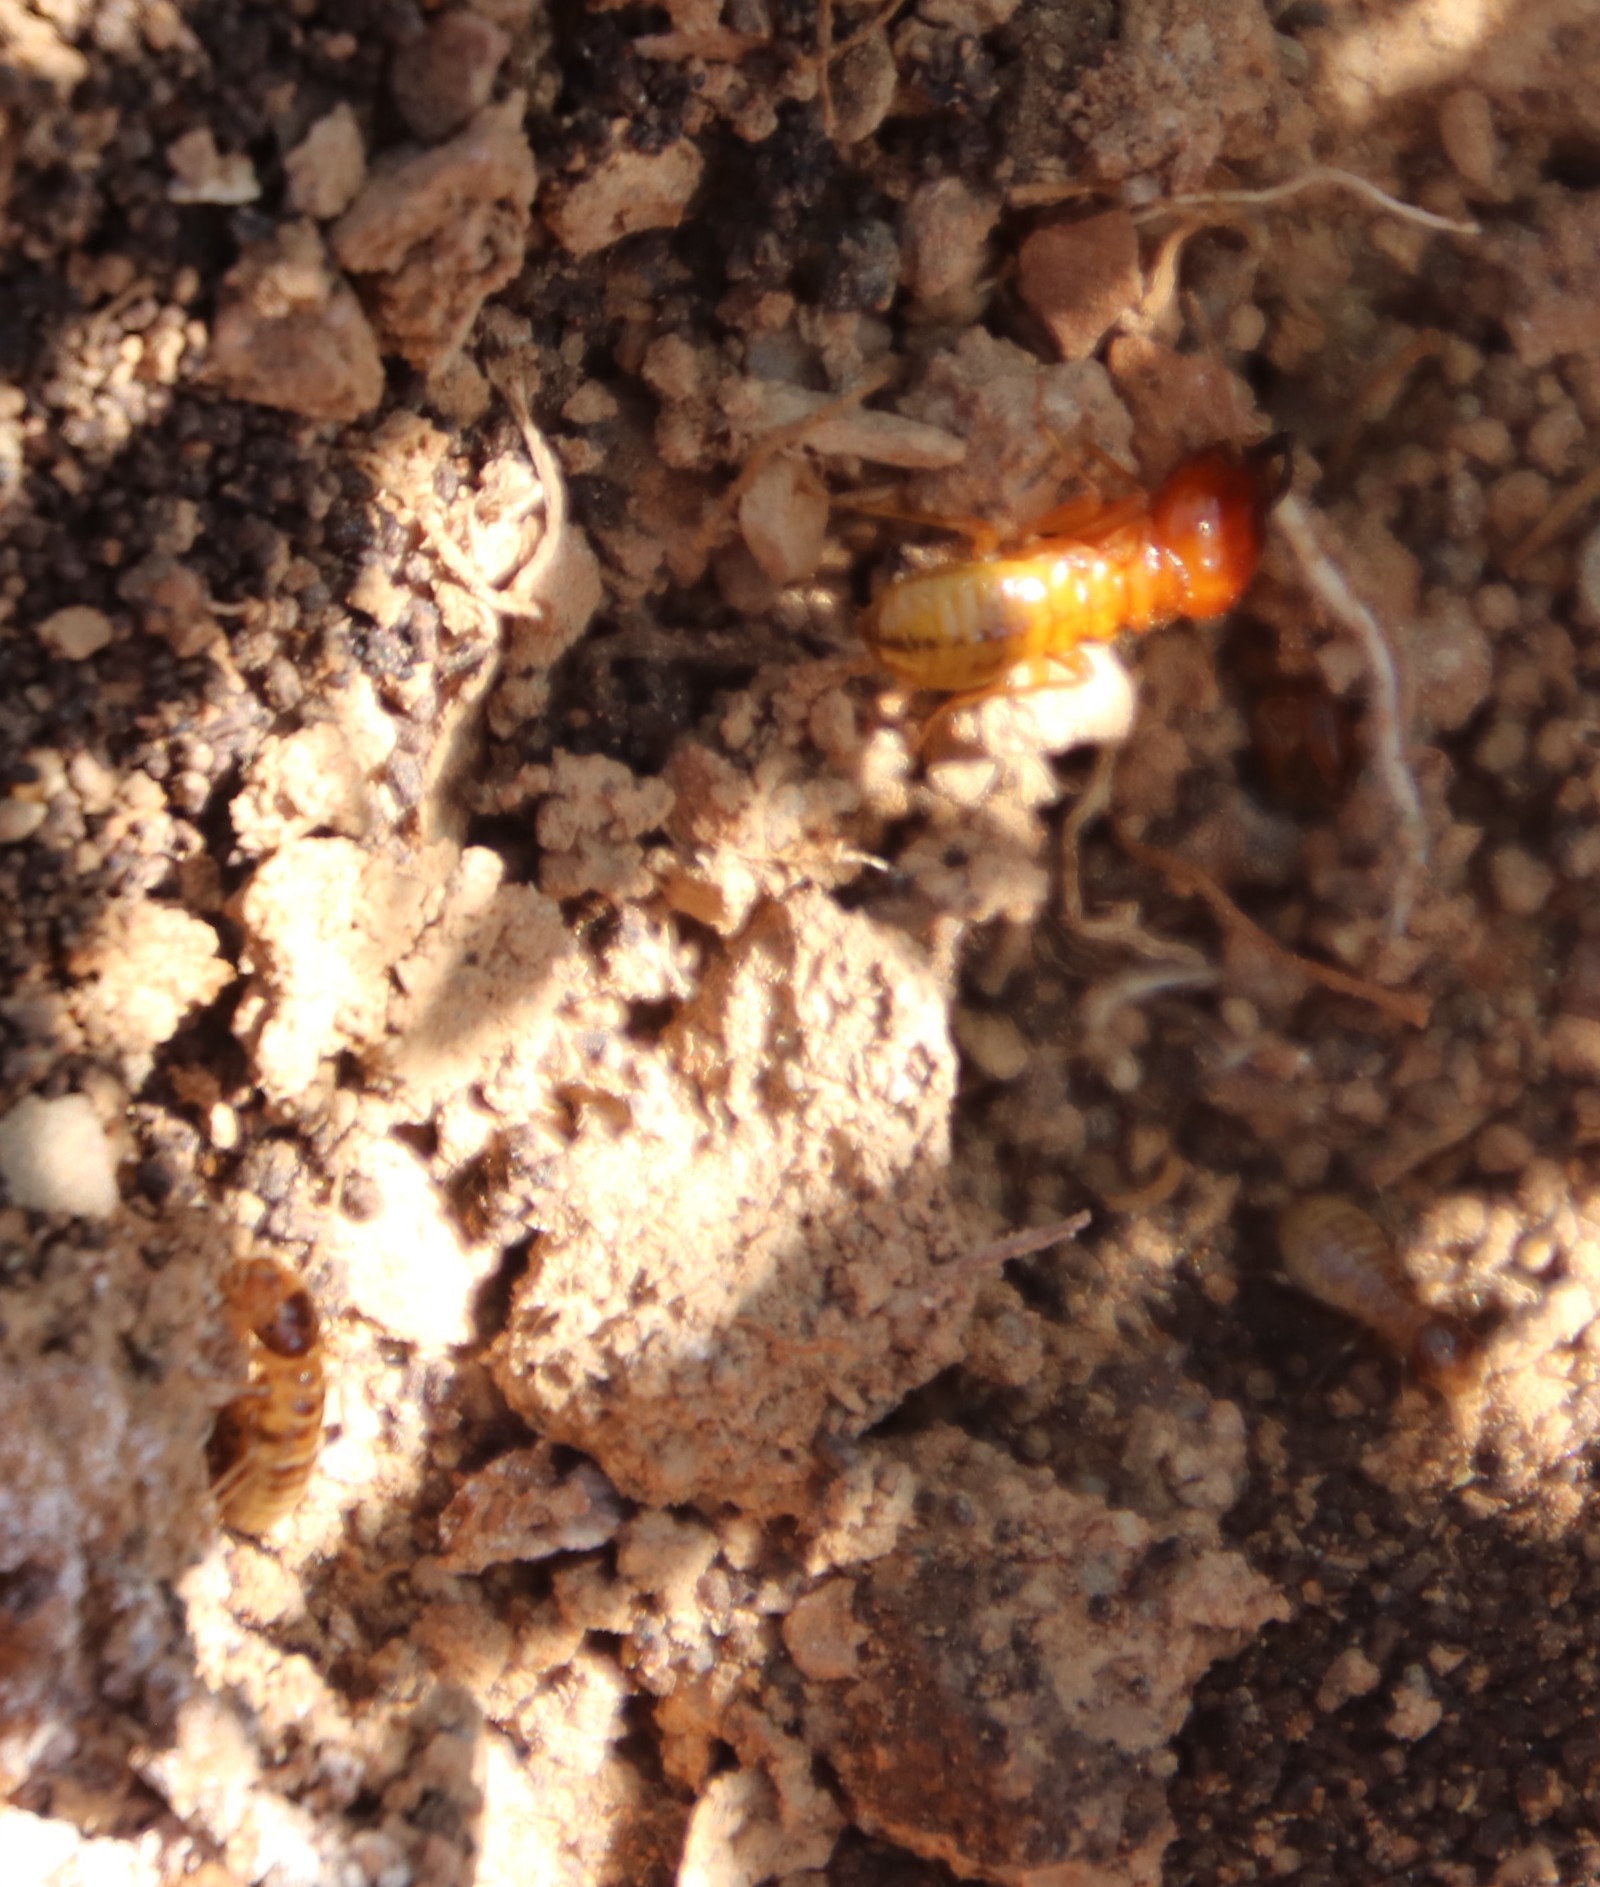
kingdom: Animalia
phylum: Arthropoda
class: Insecta
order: Blattodea
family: Hodotermitidae
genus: Microhodotermes
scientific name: Microhodotermes viator
